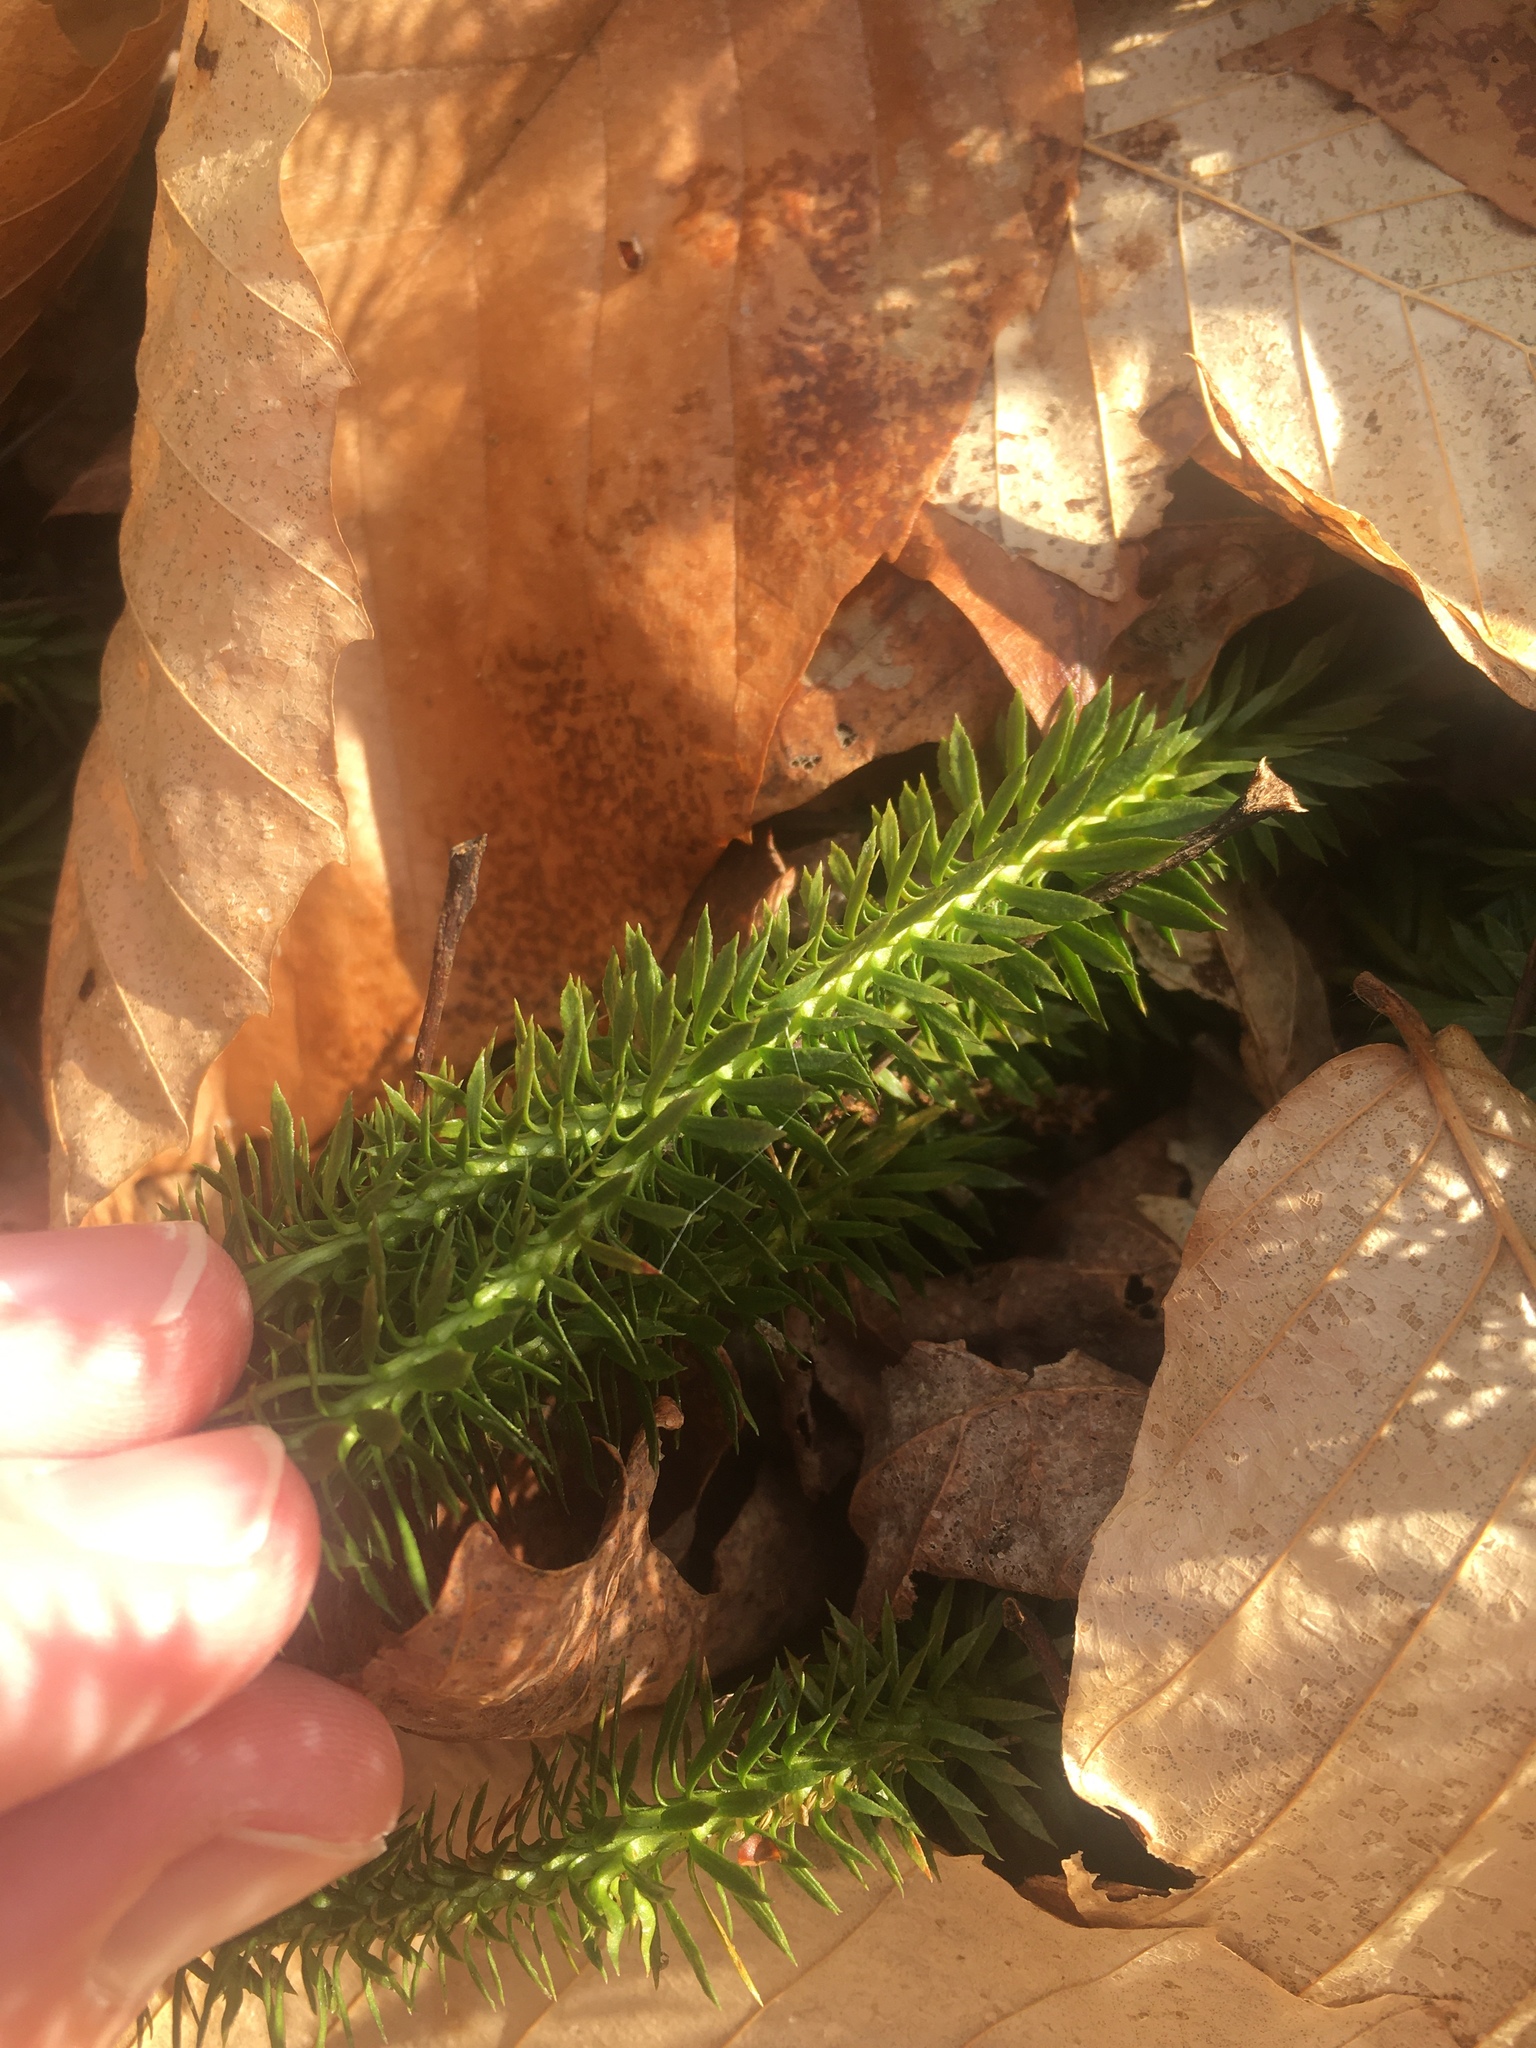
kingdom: Plantae
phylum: Tracheophyta
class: Lycopodiopsida
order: Lycopodiales
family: Lycopodiaceae
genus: Huperzia
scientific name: Huperzia lucidula
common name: Shining clubmoss
